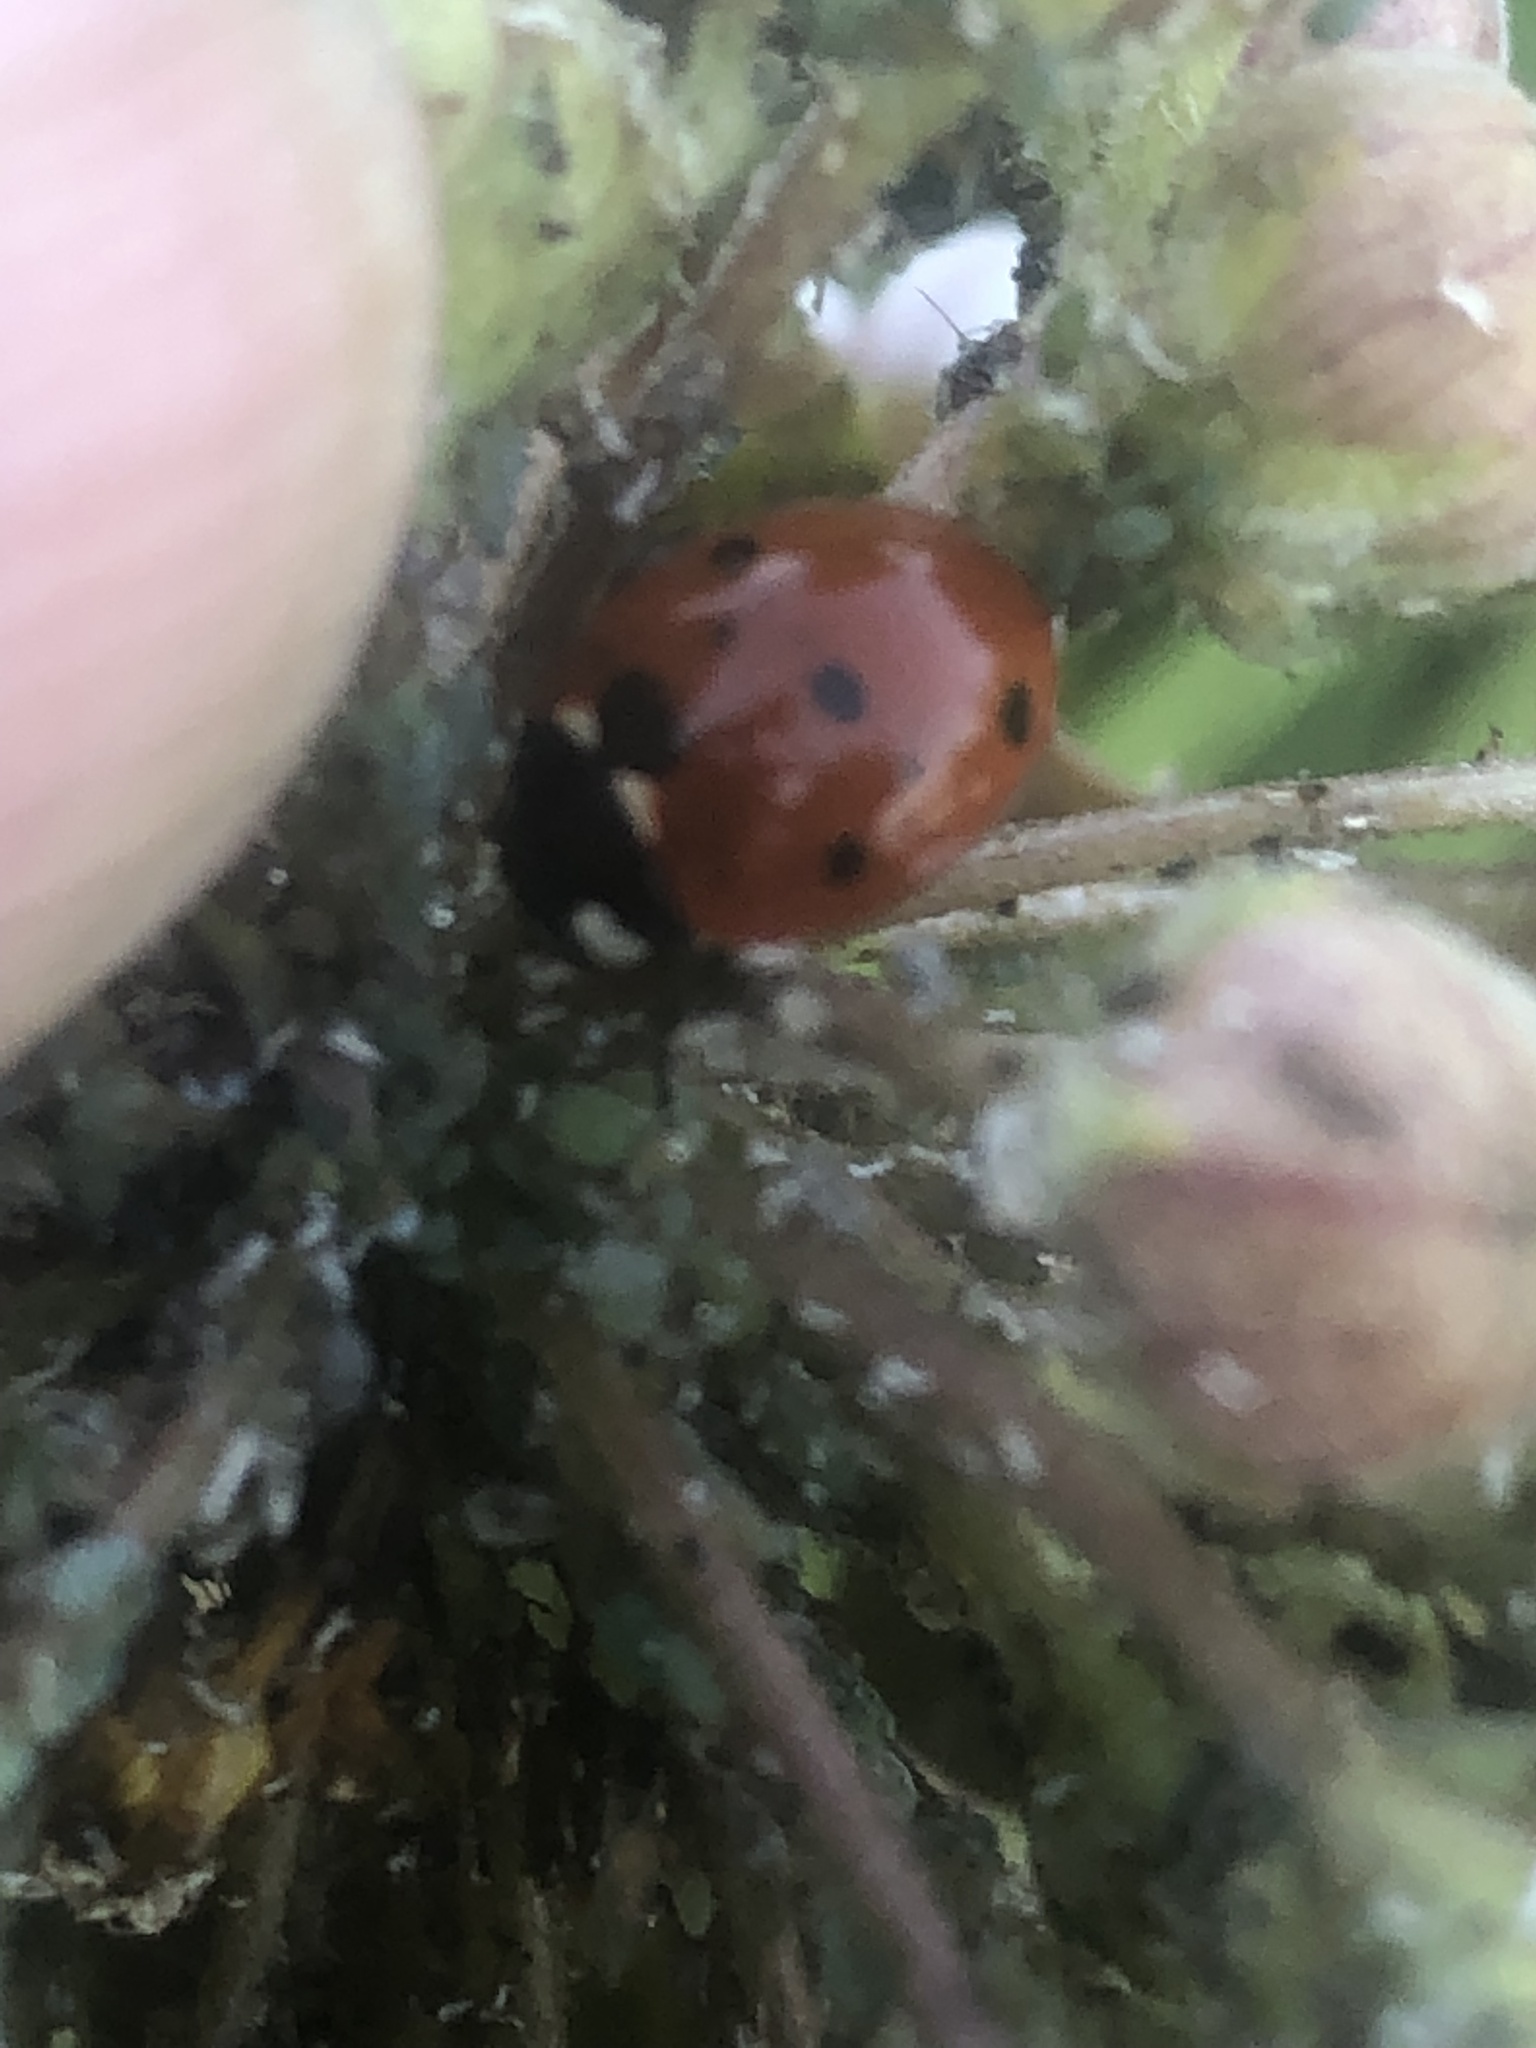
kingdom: Animalia
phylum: Arthropoda
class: Insecta
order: Coleoptera
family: Coccinellidae
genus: Coccinella
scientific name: Coccinella septempunctata
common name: Sevenspotted lady beetle
